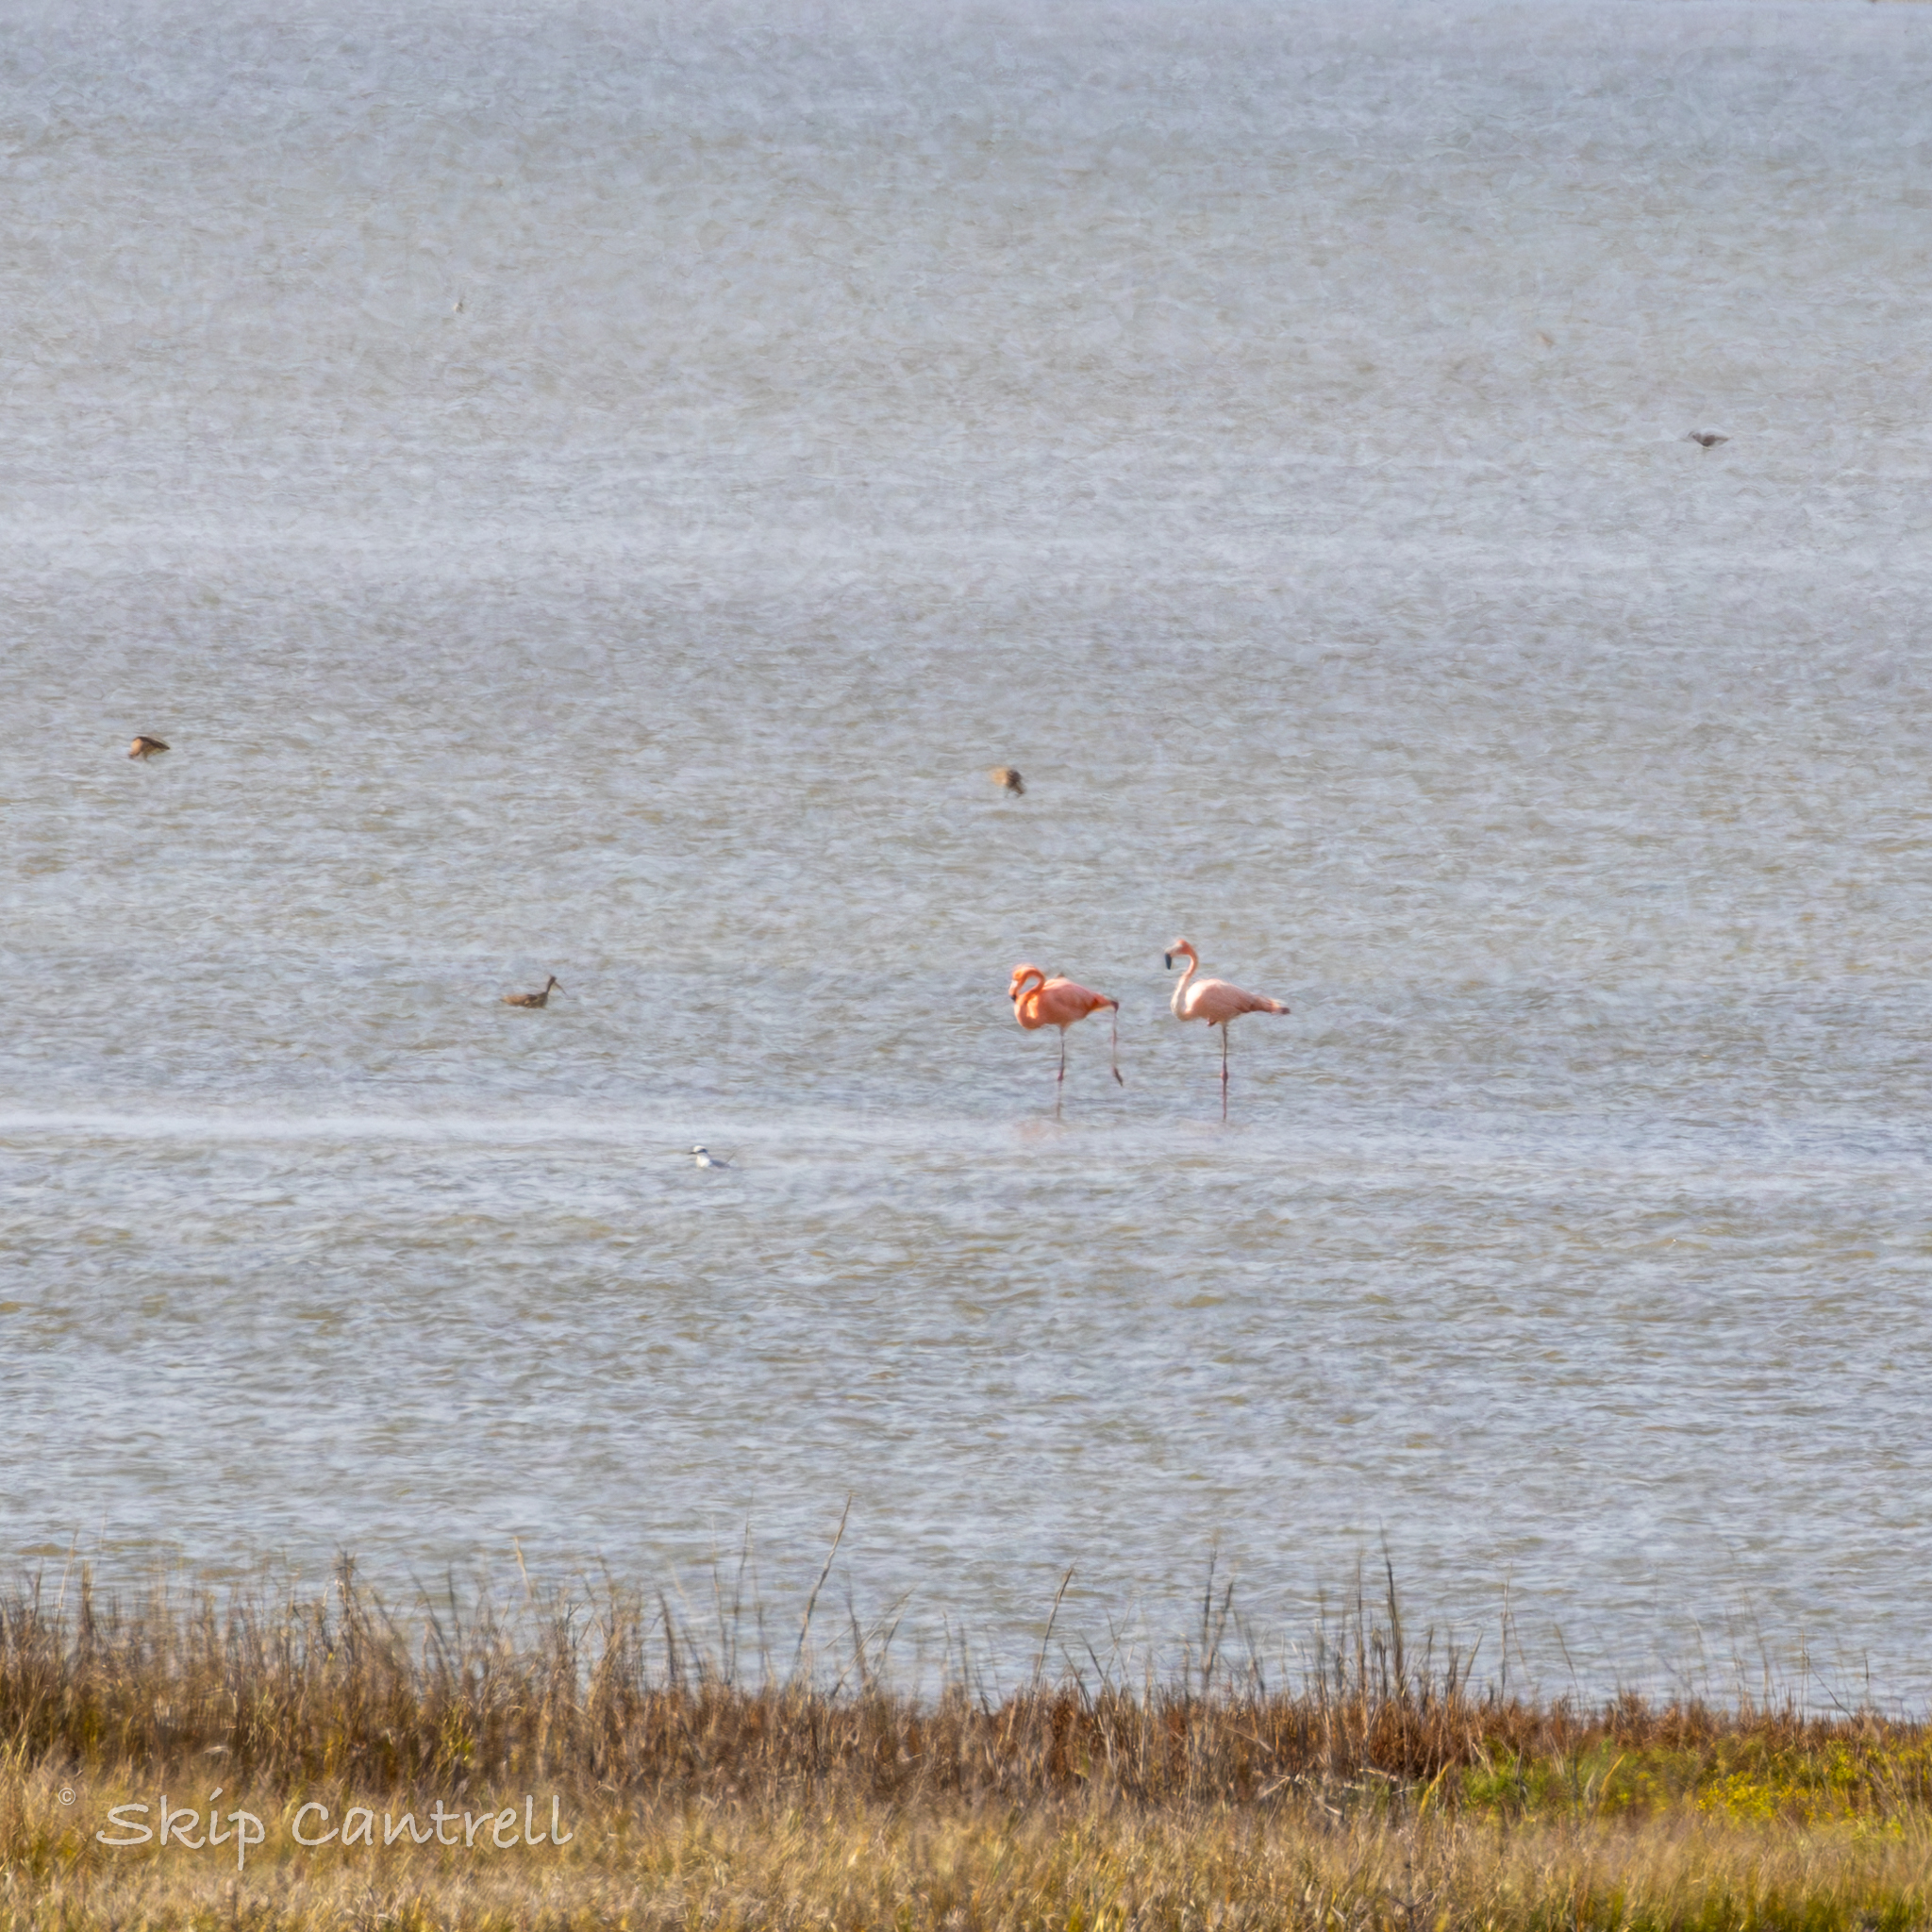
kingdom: Animalia
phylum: Chordata
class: Aves
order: Phoenicopteriformes
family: Phoenicopteridae
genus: Phoenicopterus
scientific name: Phoenicopterus ruber
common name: American flamingo
